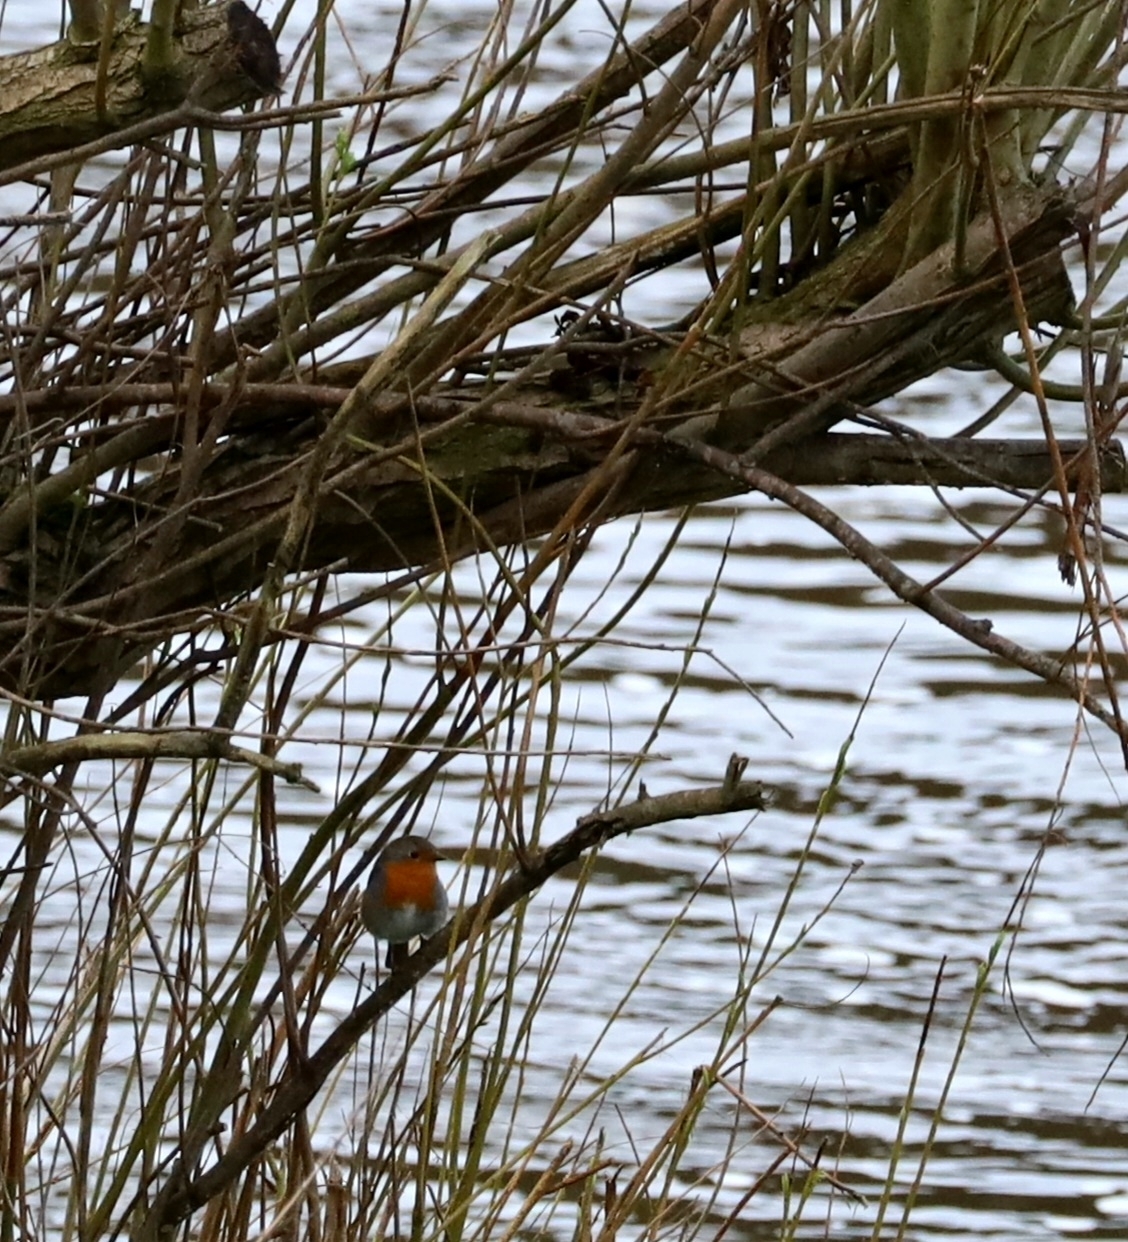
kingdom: Animalia
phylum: Chordata
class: Aves
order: Passeriformes
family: Muscicapidae
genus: Erithacus
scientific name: Erithacus rubecula
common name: European robin
